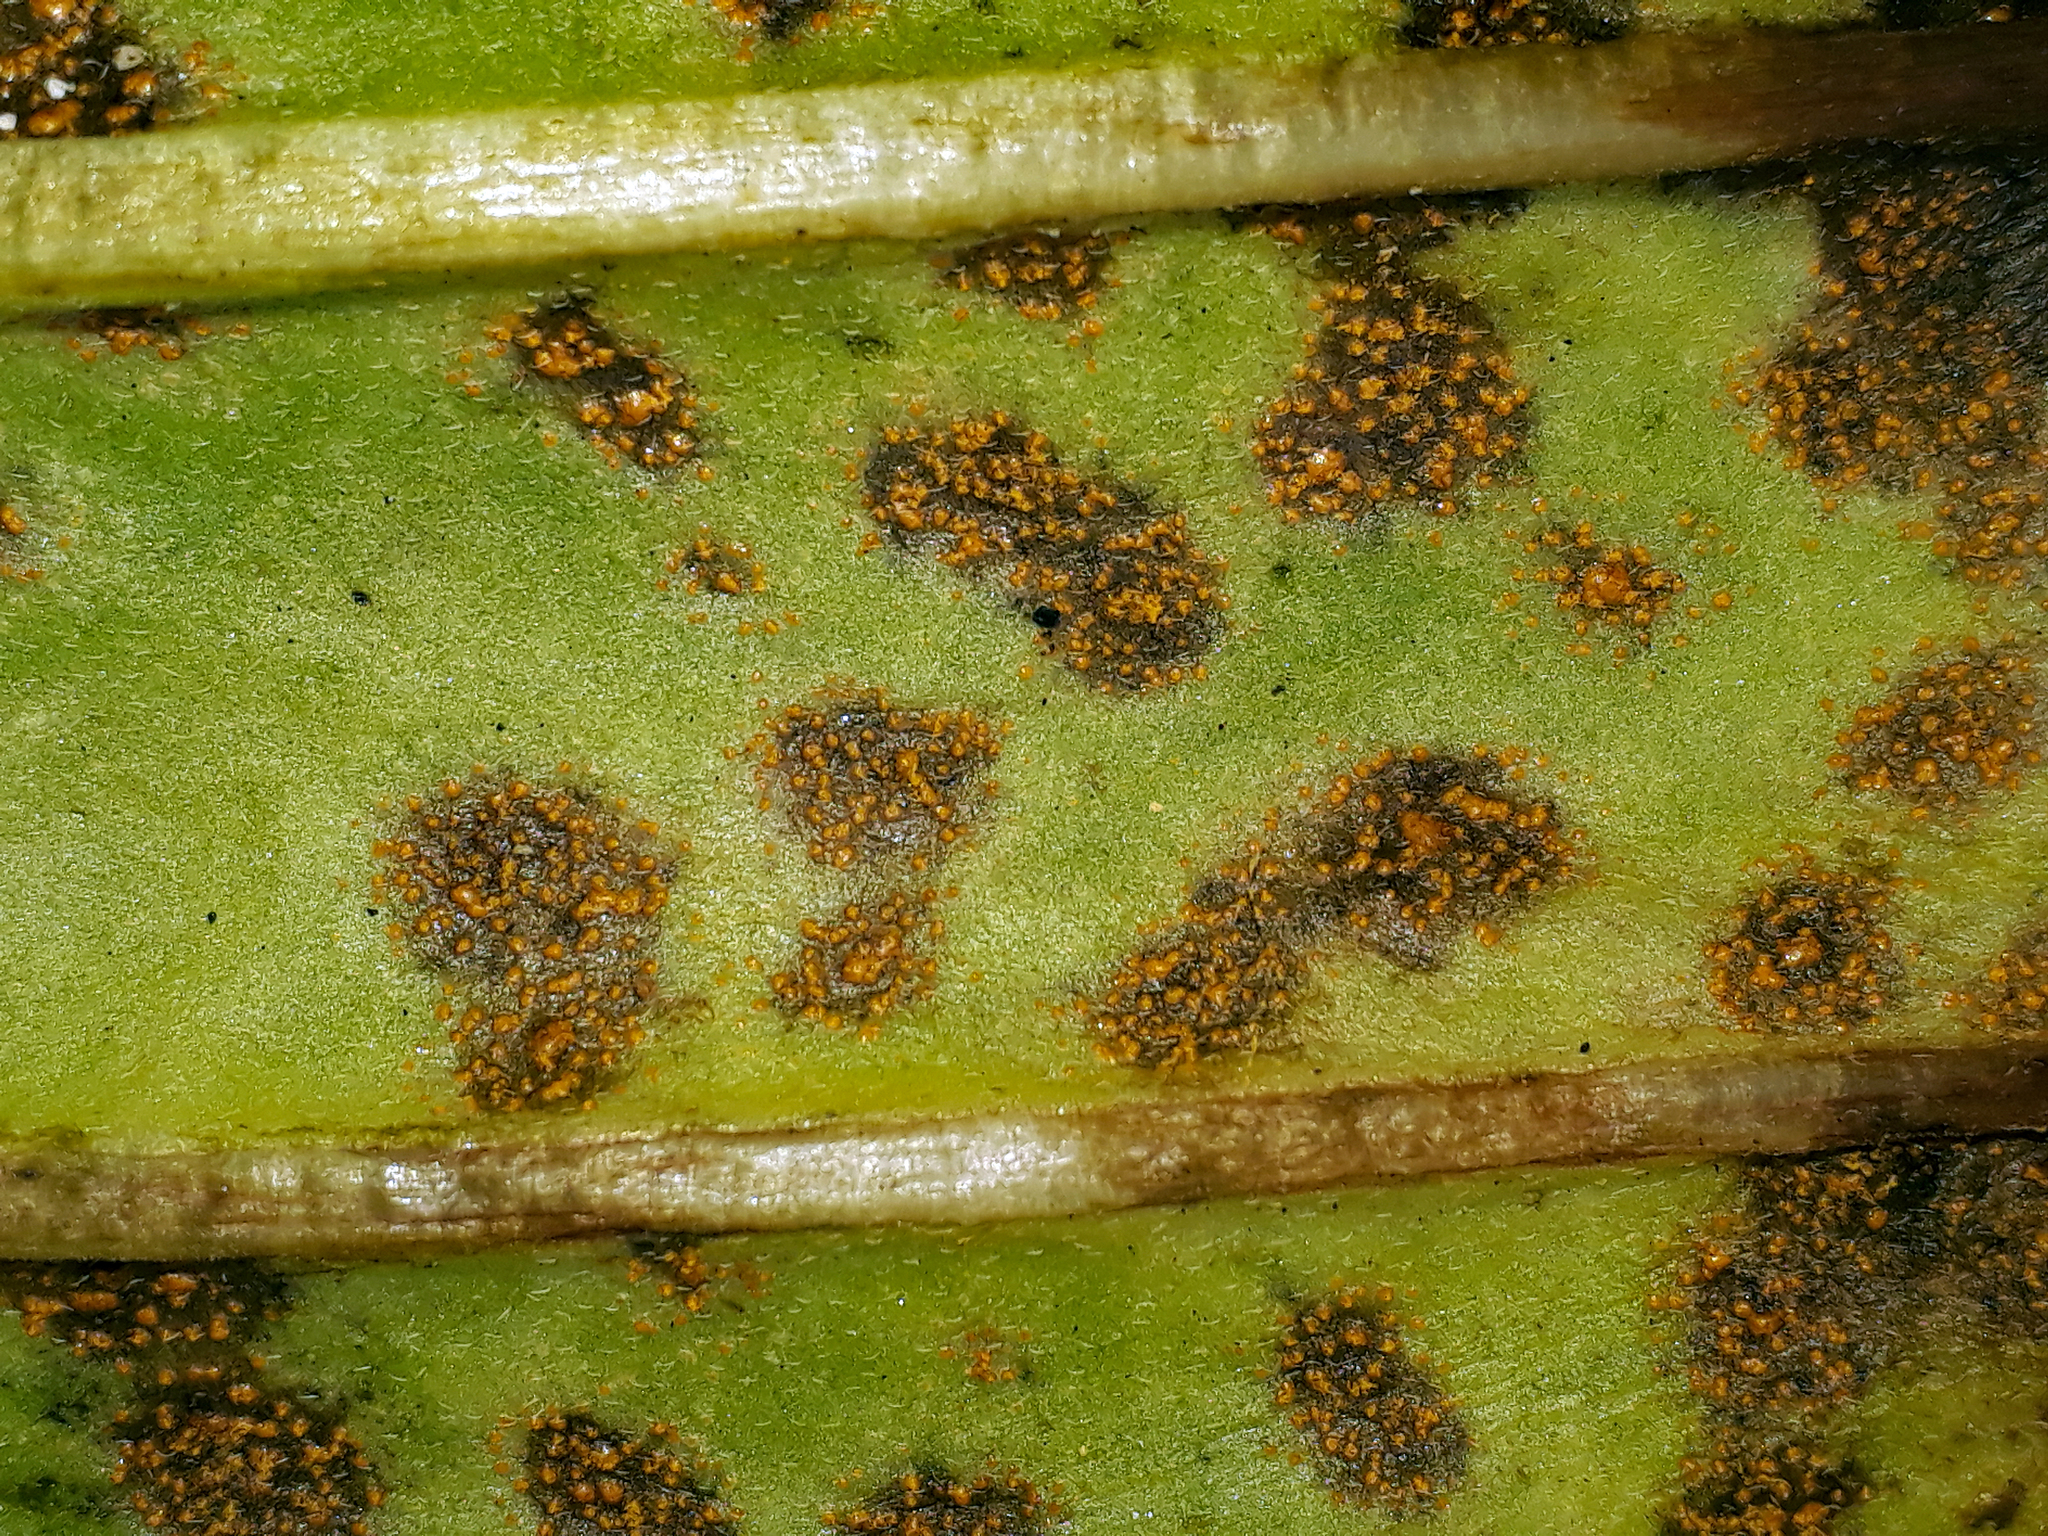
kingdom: Fungi
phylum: Basidiomycota
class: Pucciniomycetes
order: Pucciniales
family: Pucciniastraceae
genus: Pucciniastrum
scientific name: Pucciniastrum myosotidii
